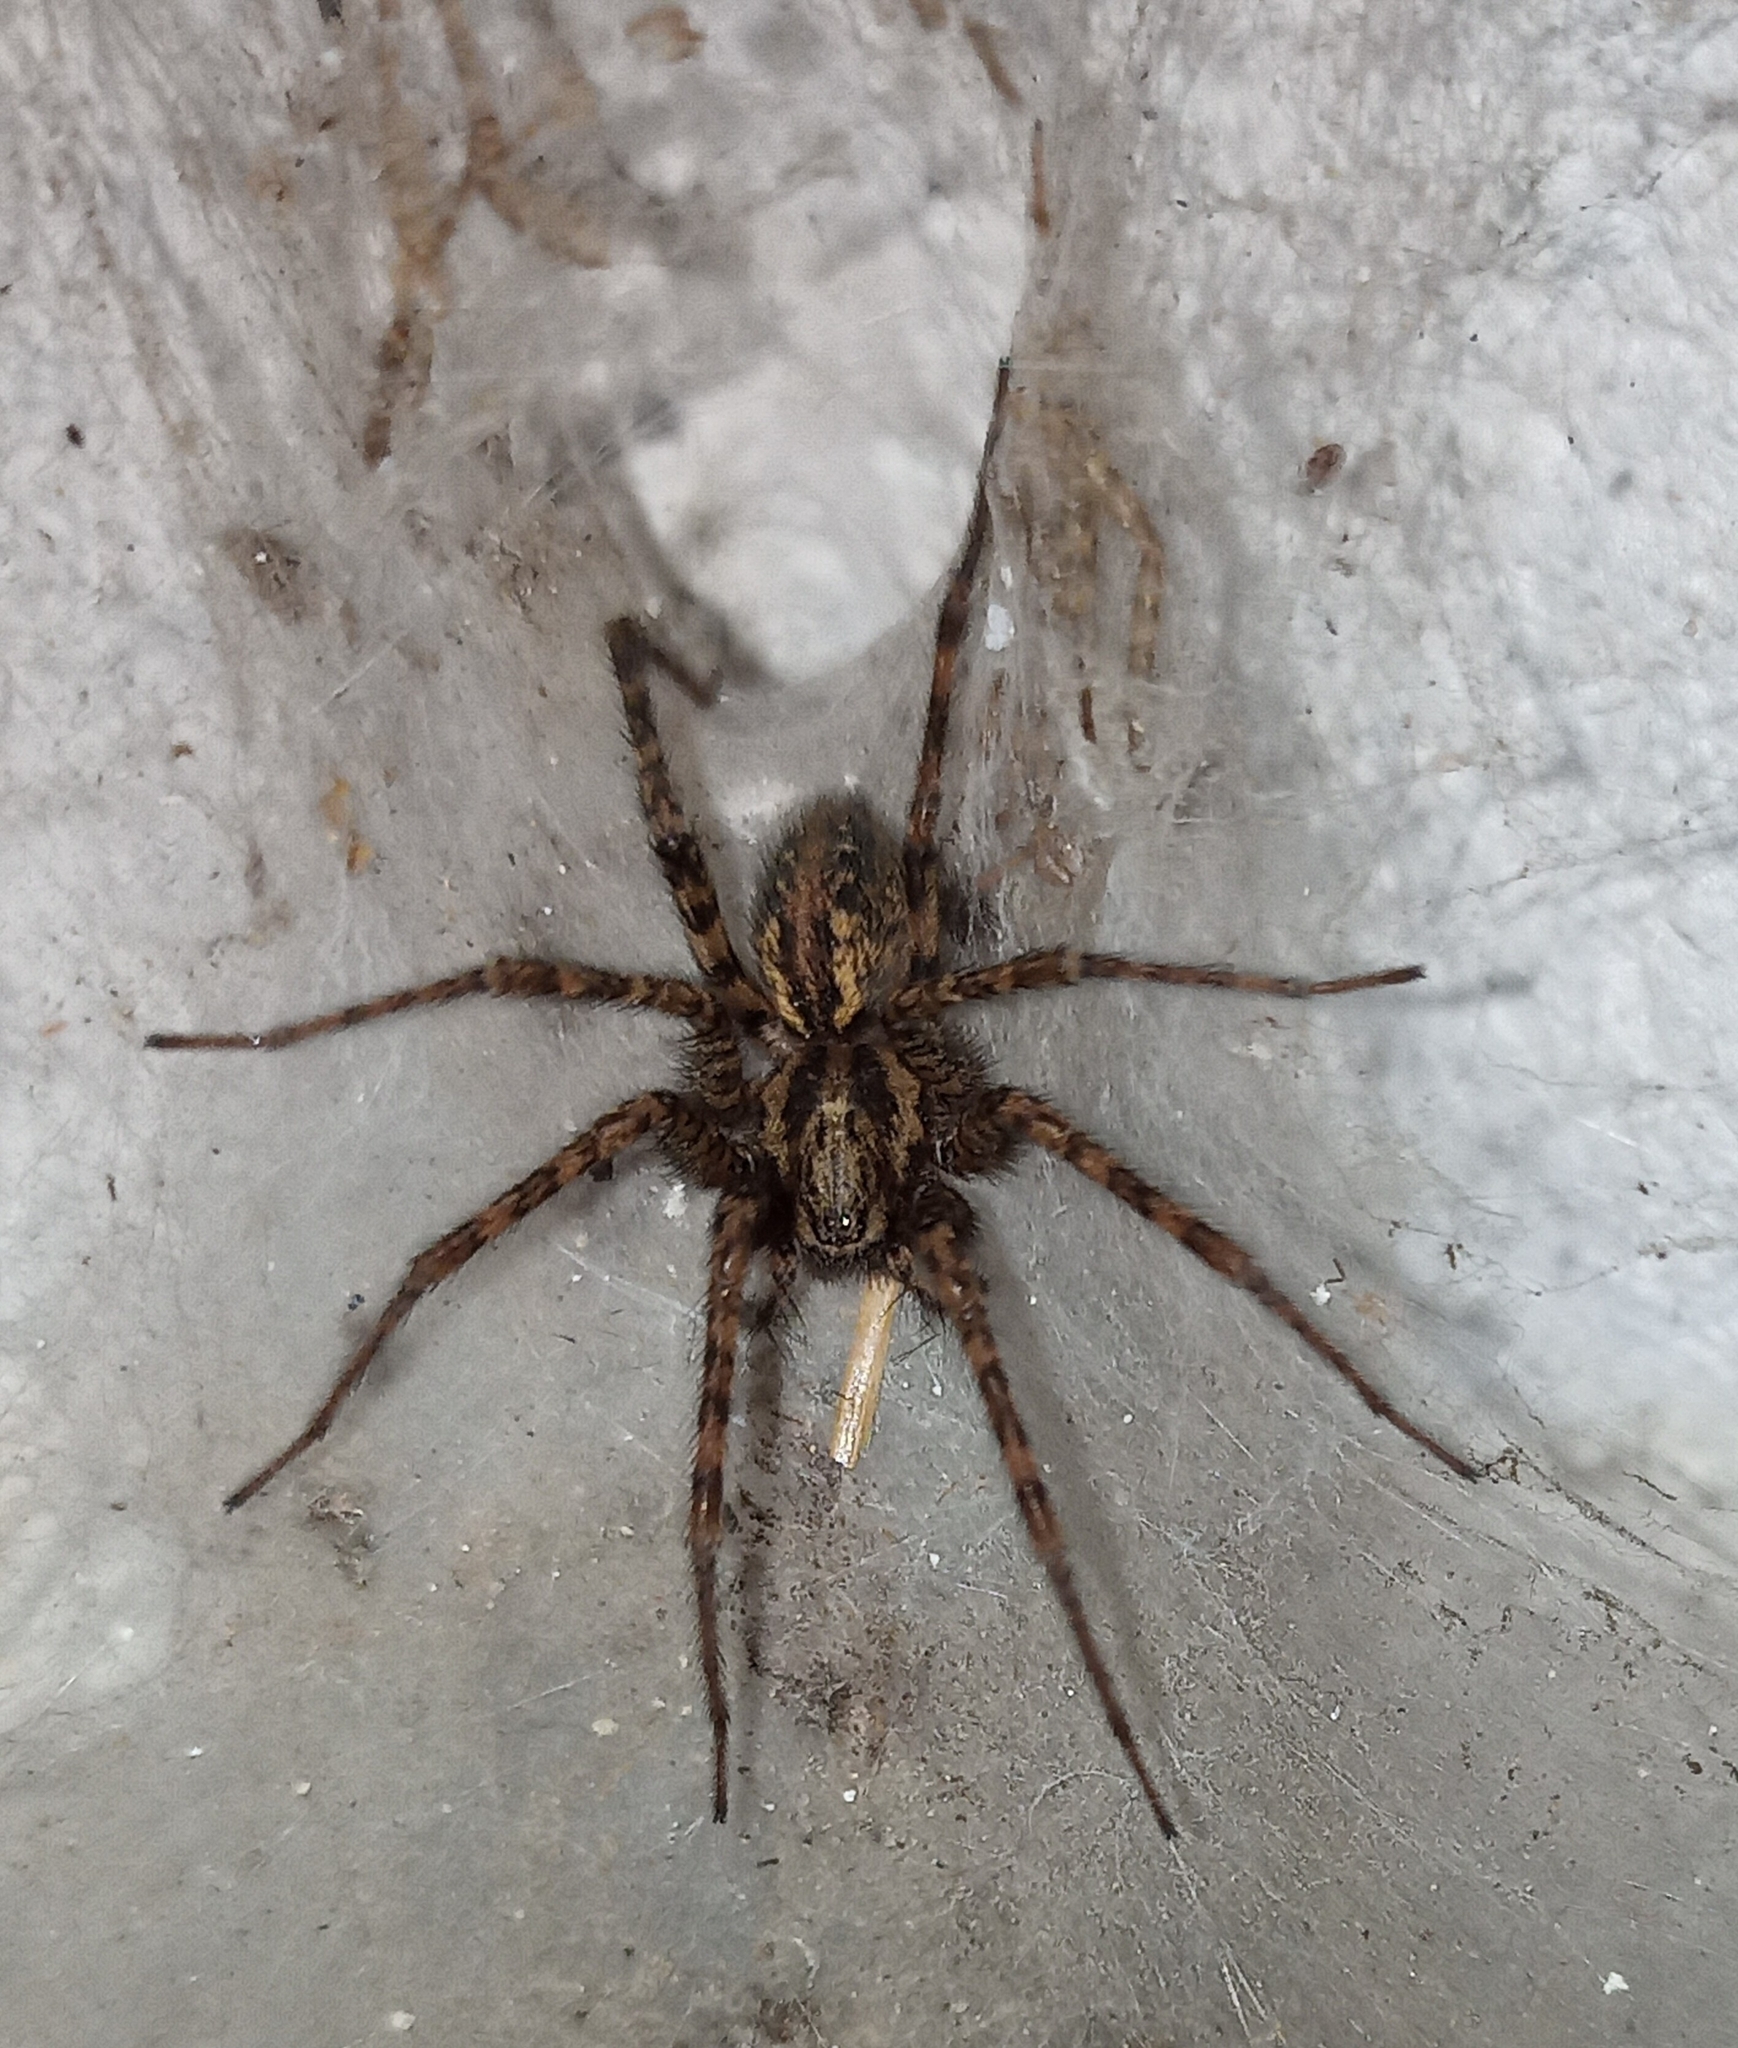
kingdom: Animalia
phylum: Arthropoda
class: Arachnida
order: Araneae
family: Agelenidae
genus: Tegenaria
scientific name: Tegenaria ferruginea
